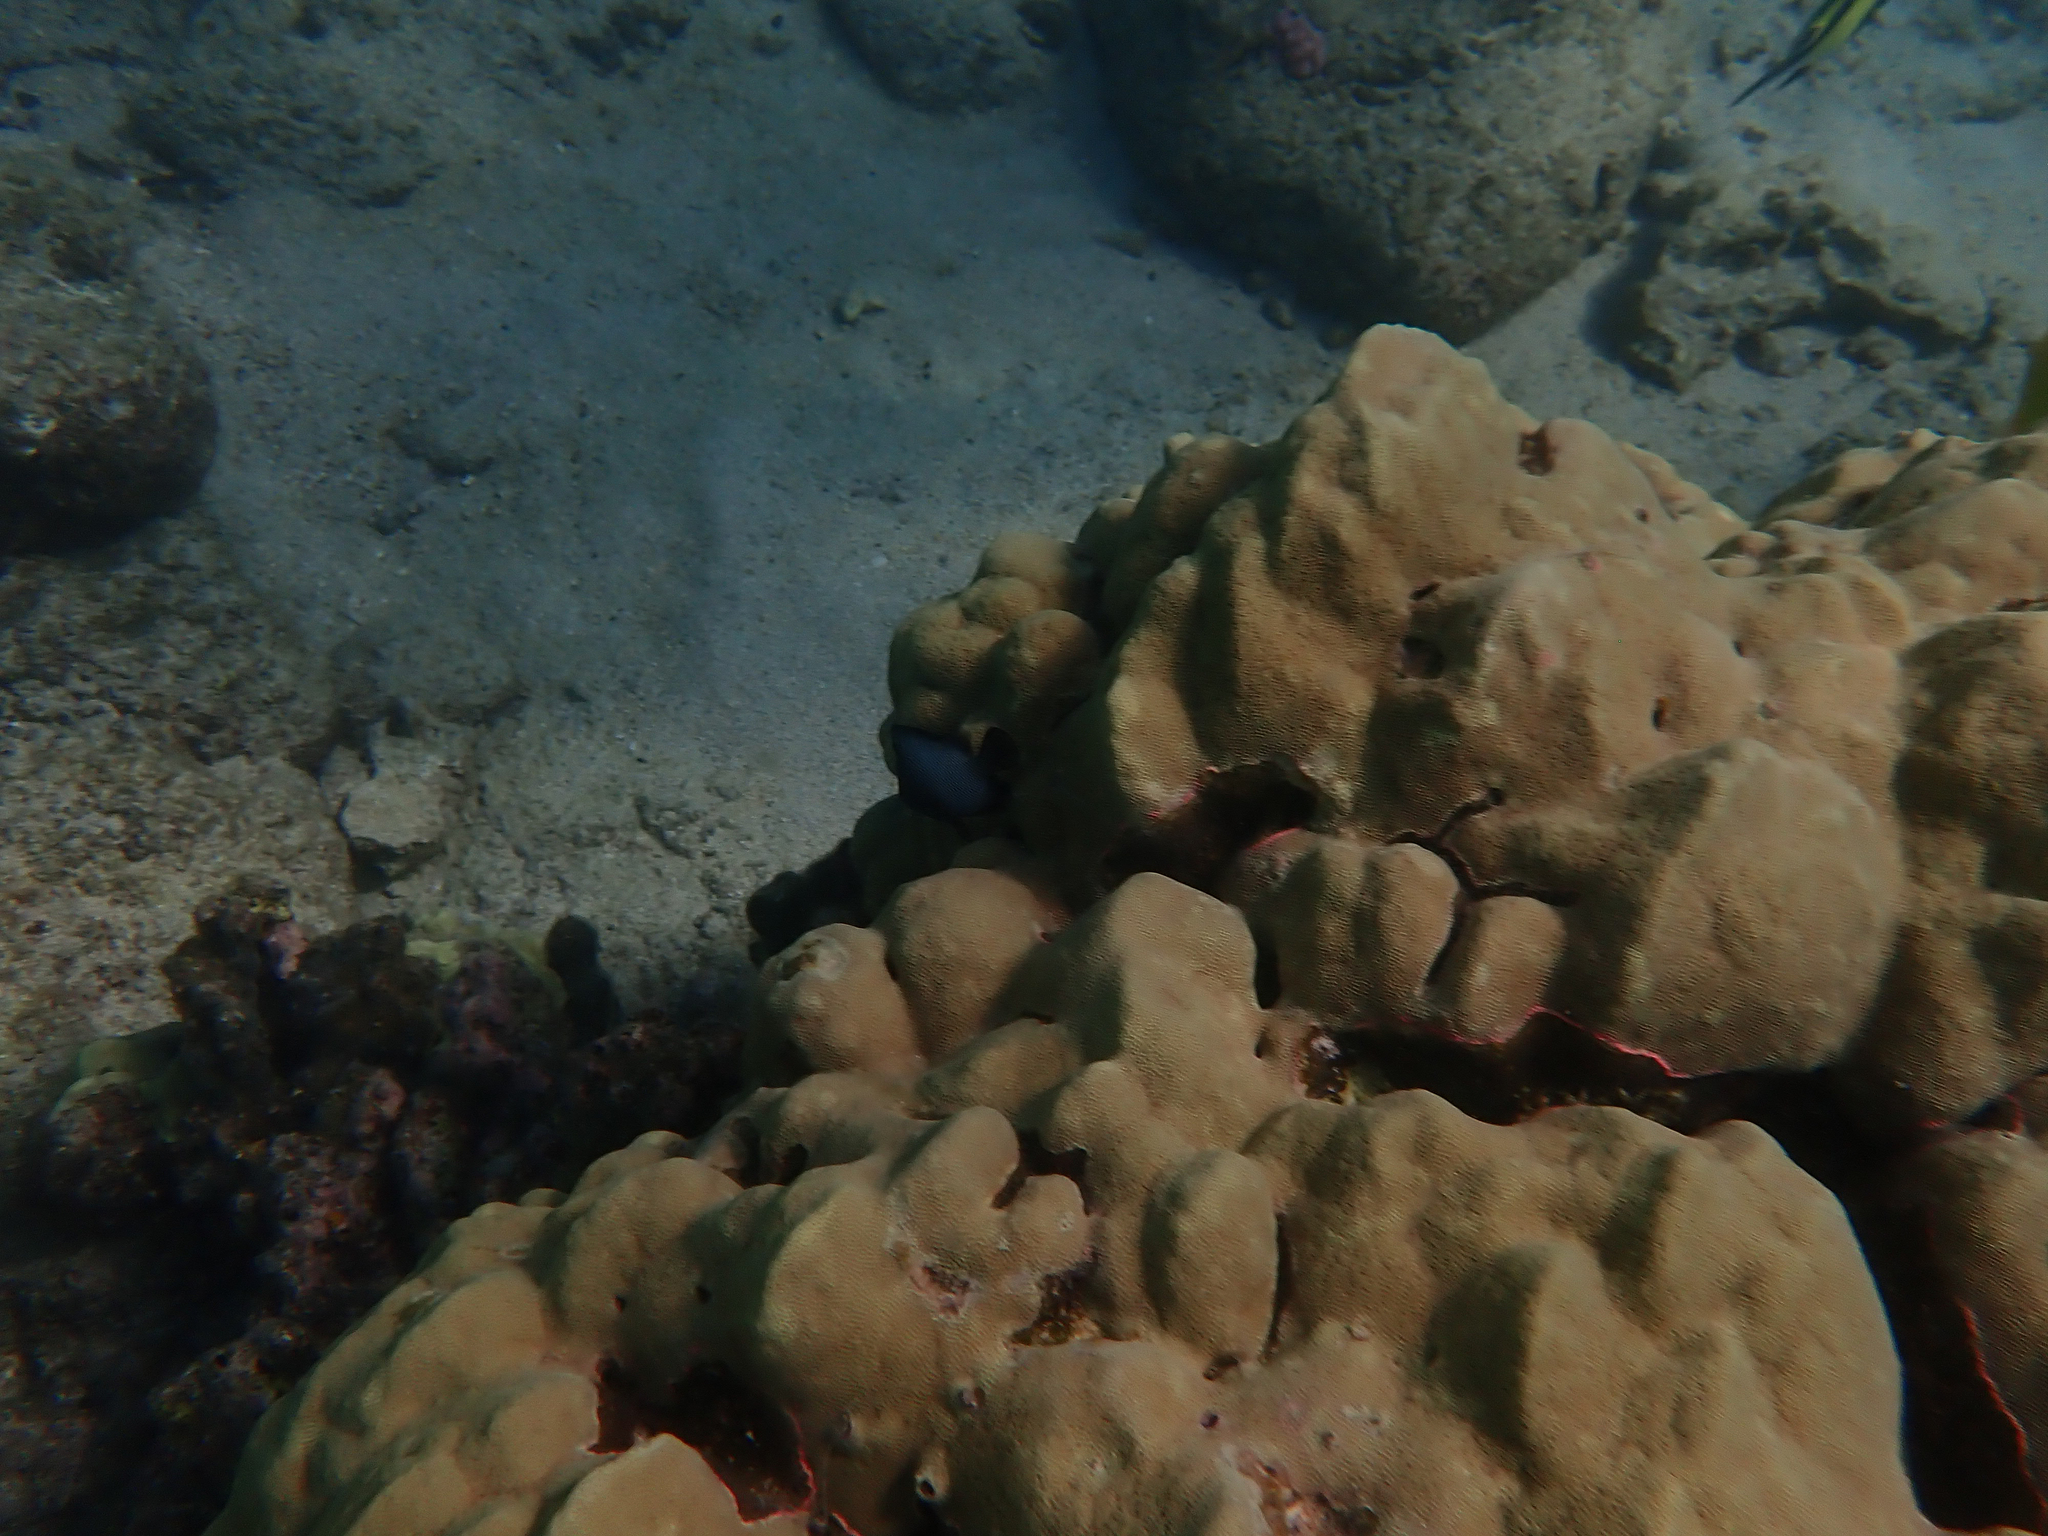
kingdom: Animalia
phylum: Chordata
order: Perciformes
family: Pomacentridae
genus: Dascyllus
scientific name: Dascyllus albisella
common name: Hawaiian dascyllus
